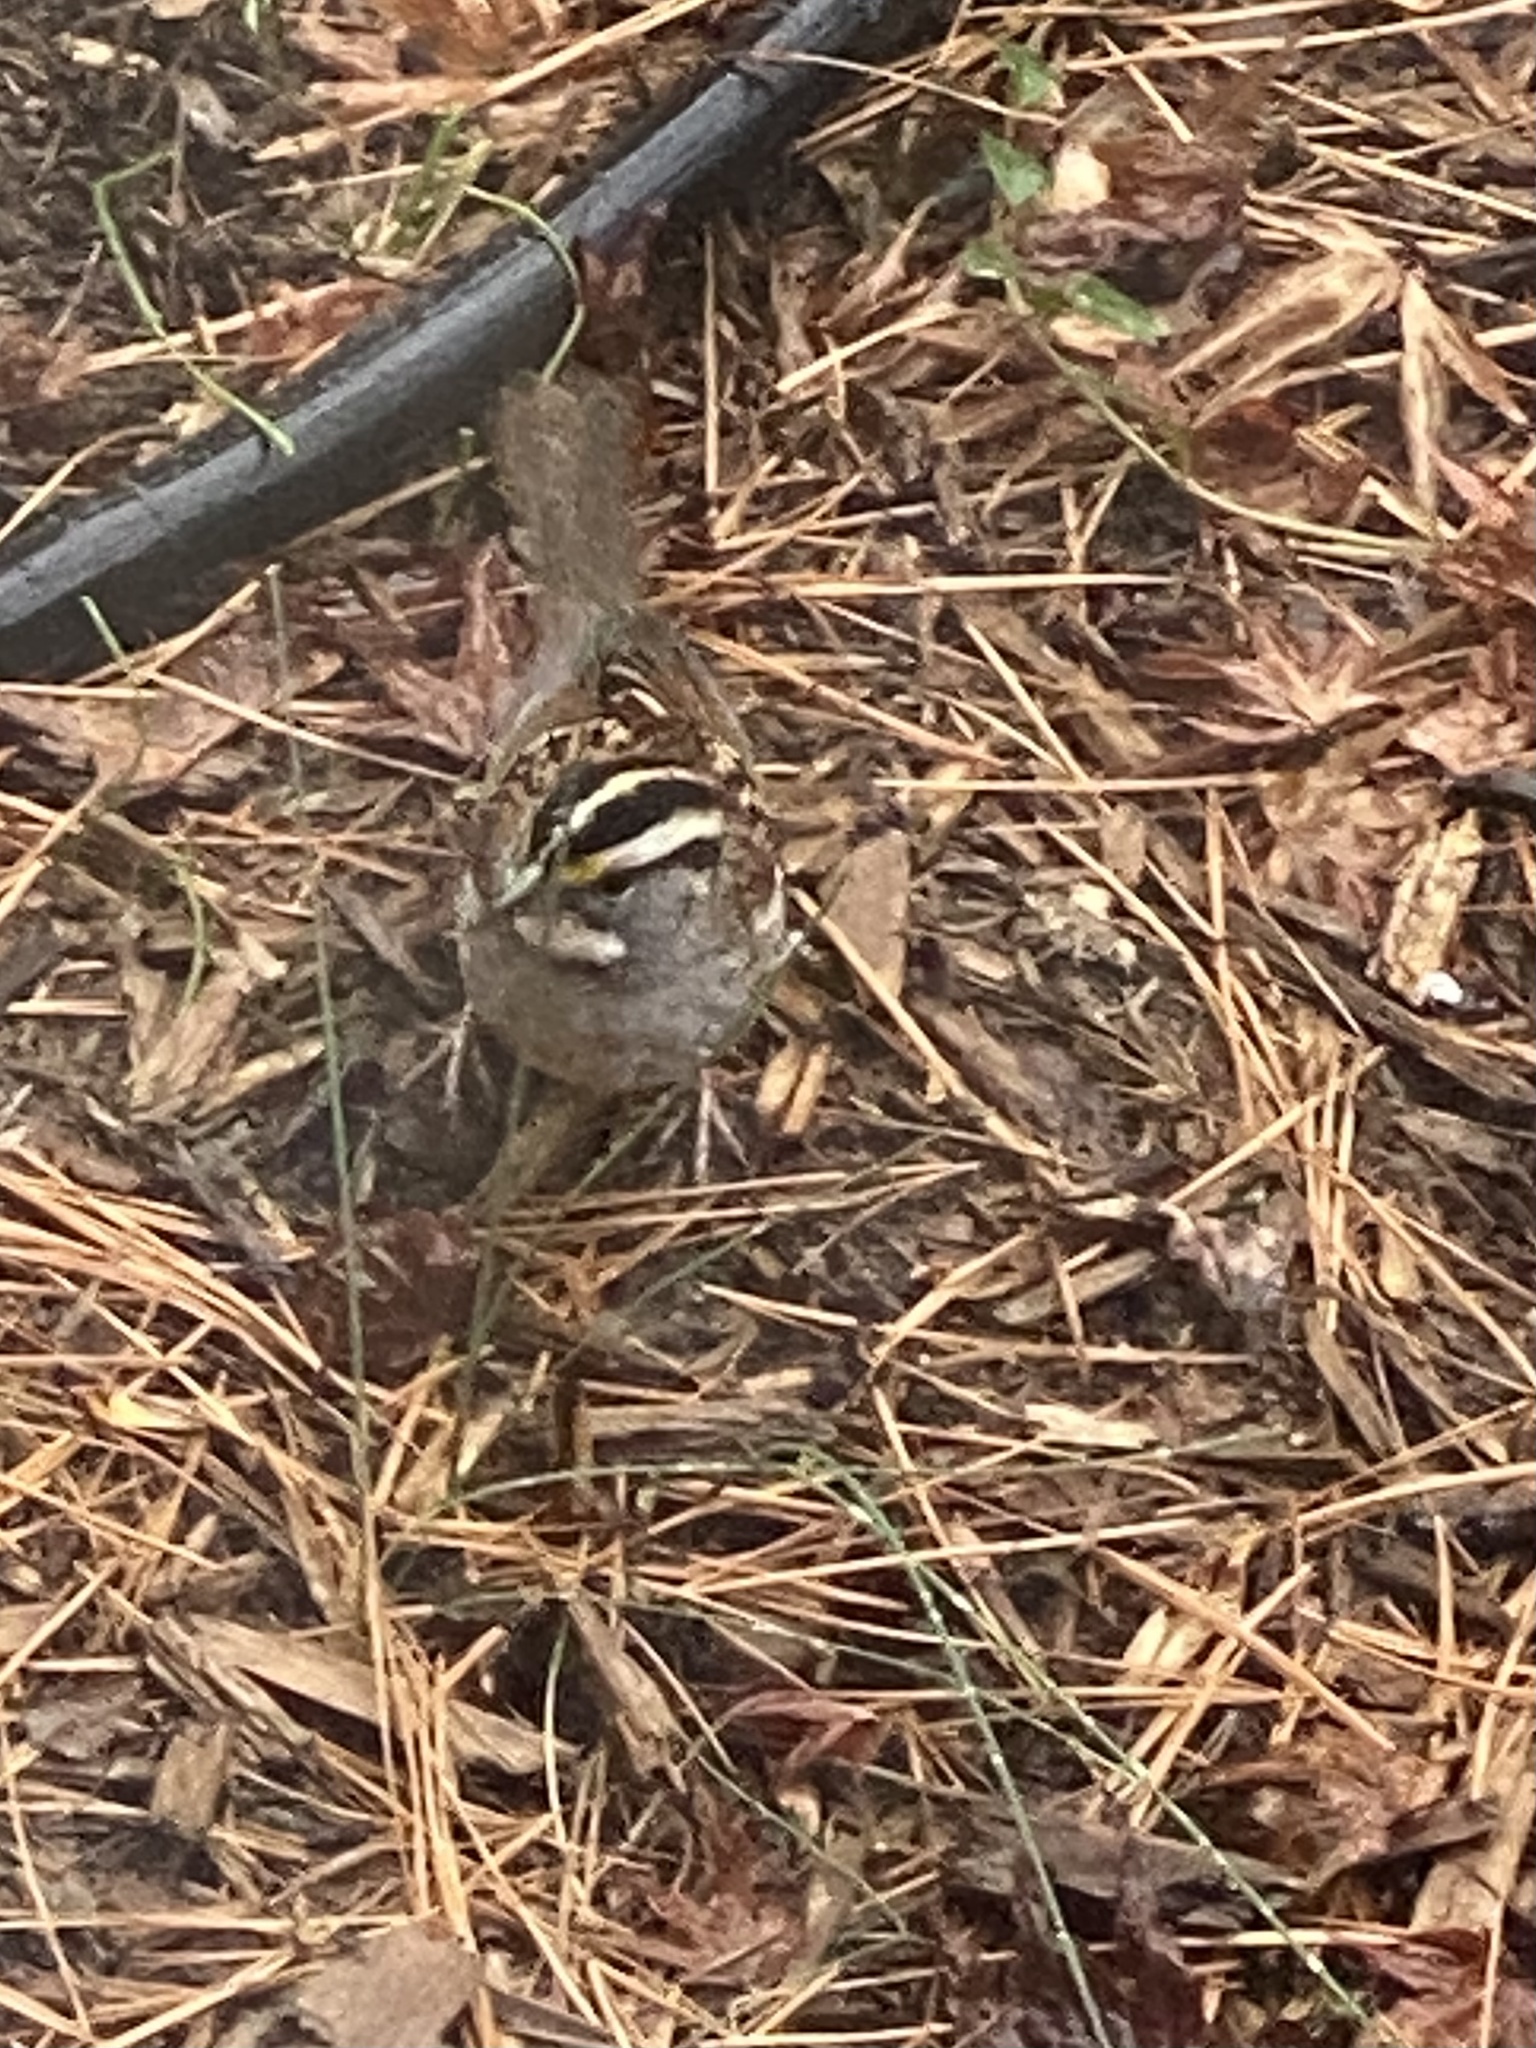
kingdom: Animalia
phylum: Chordata
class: Aves
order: Passeriformes
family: Passerellidae
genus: Zonotrichia
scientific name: Zonotrichia albicollis
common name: White-throated sparrow
